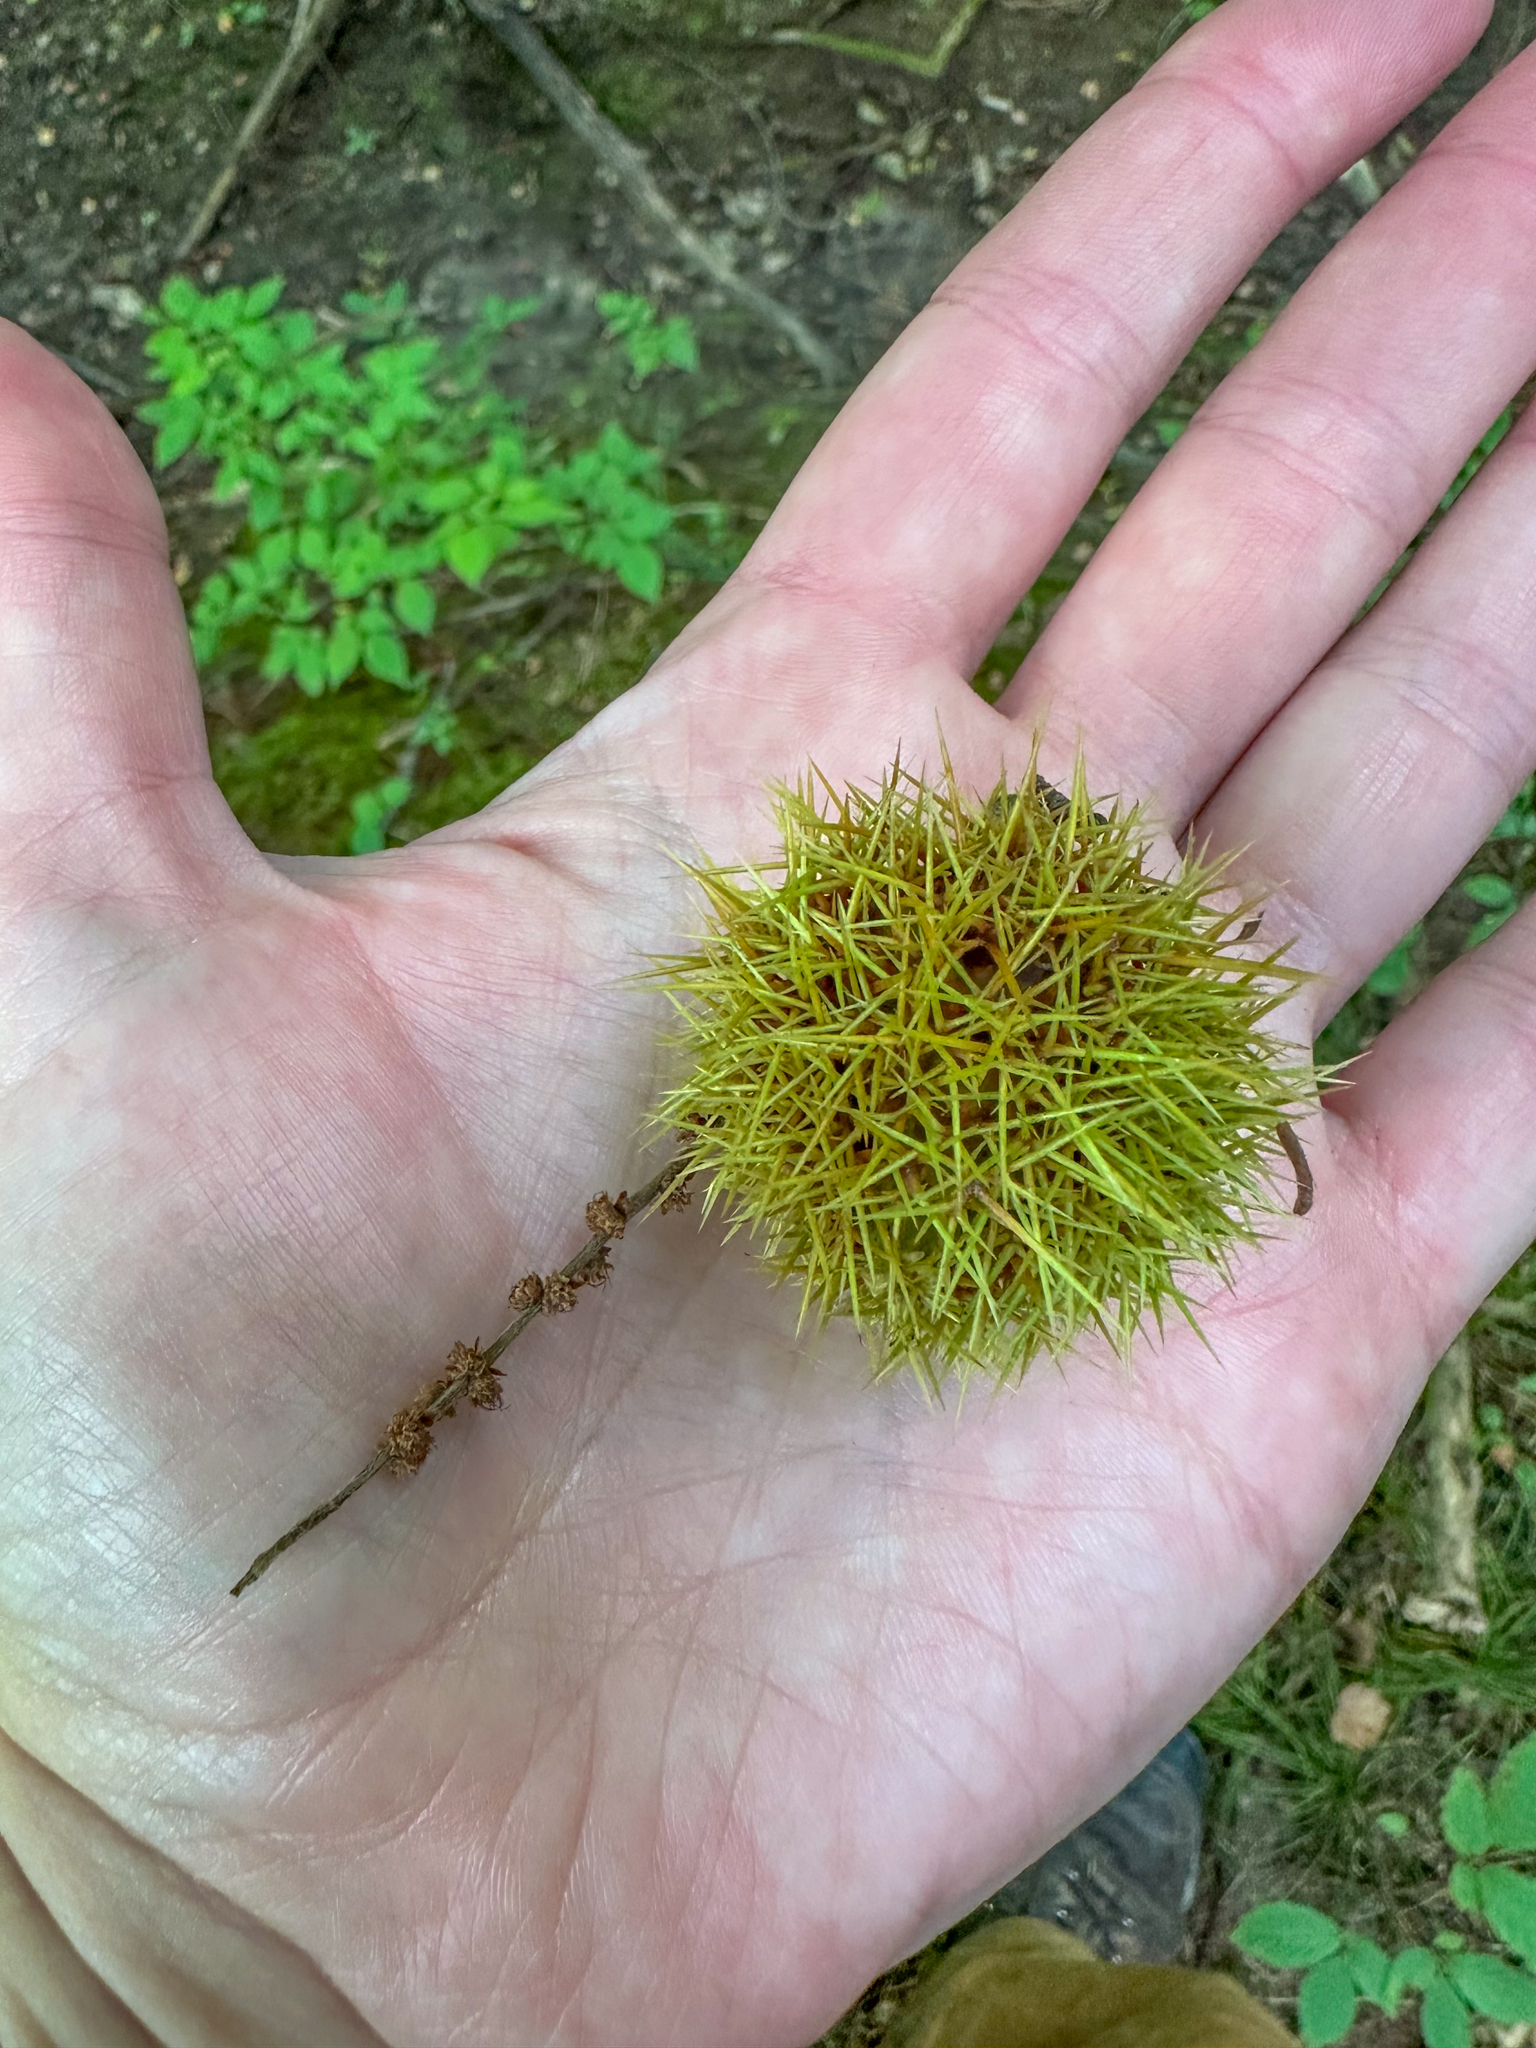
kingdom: Plantae
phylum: Tracheophyta
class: Magnoliopsida
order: Fagales
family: Fagaceae
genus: Castanea
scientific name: Castanea dentata
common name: American chestnut
